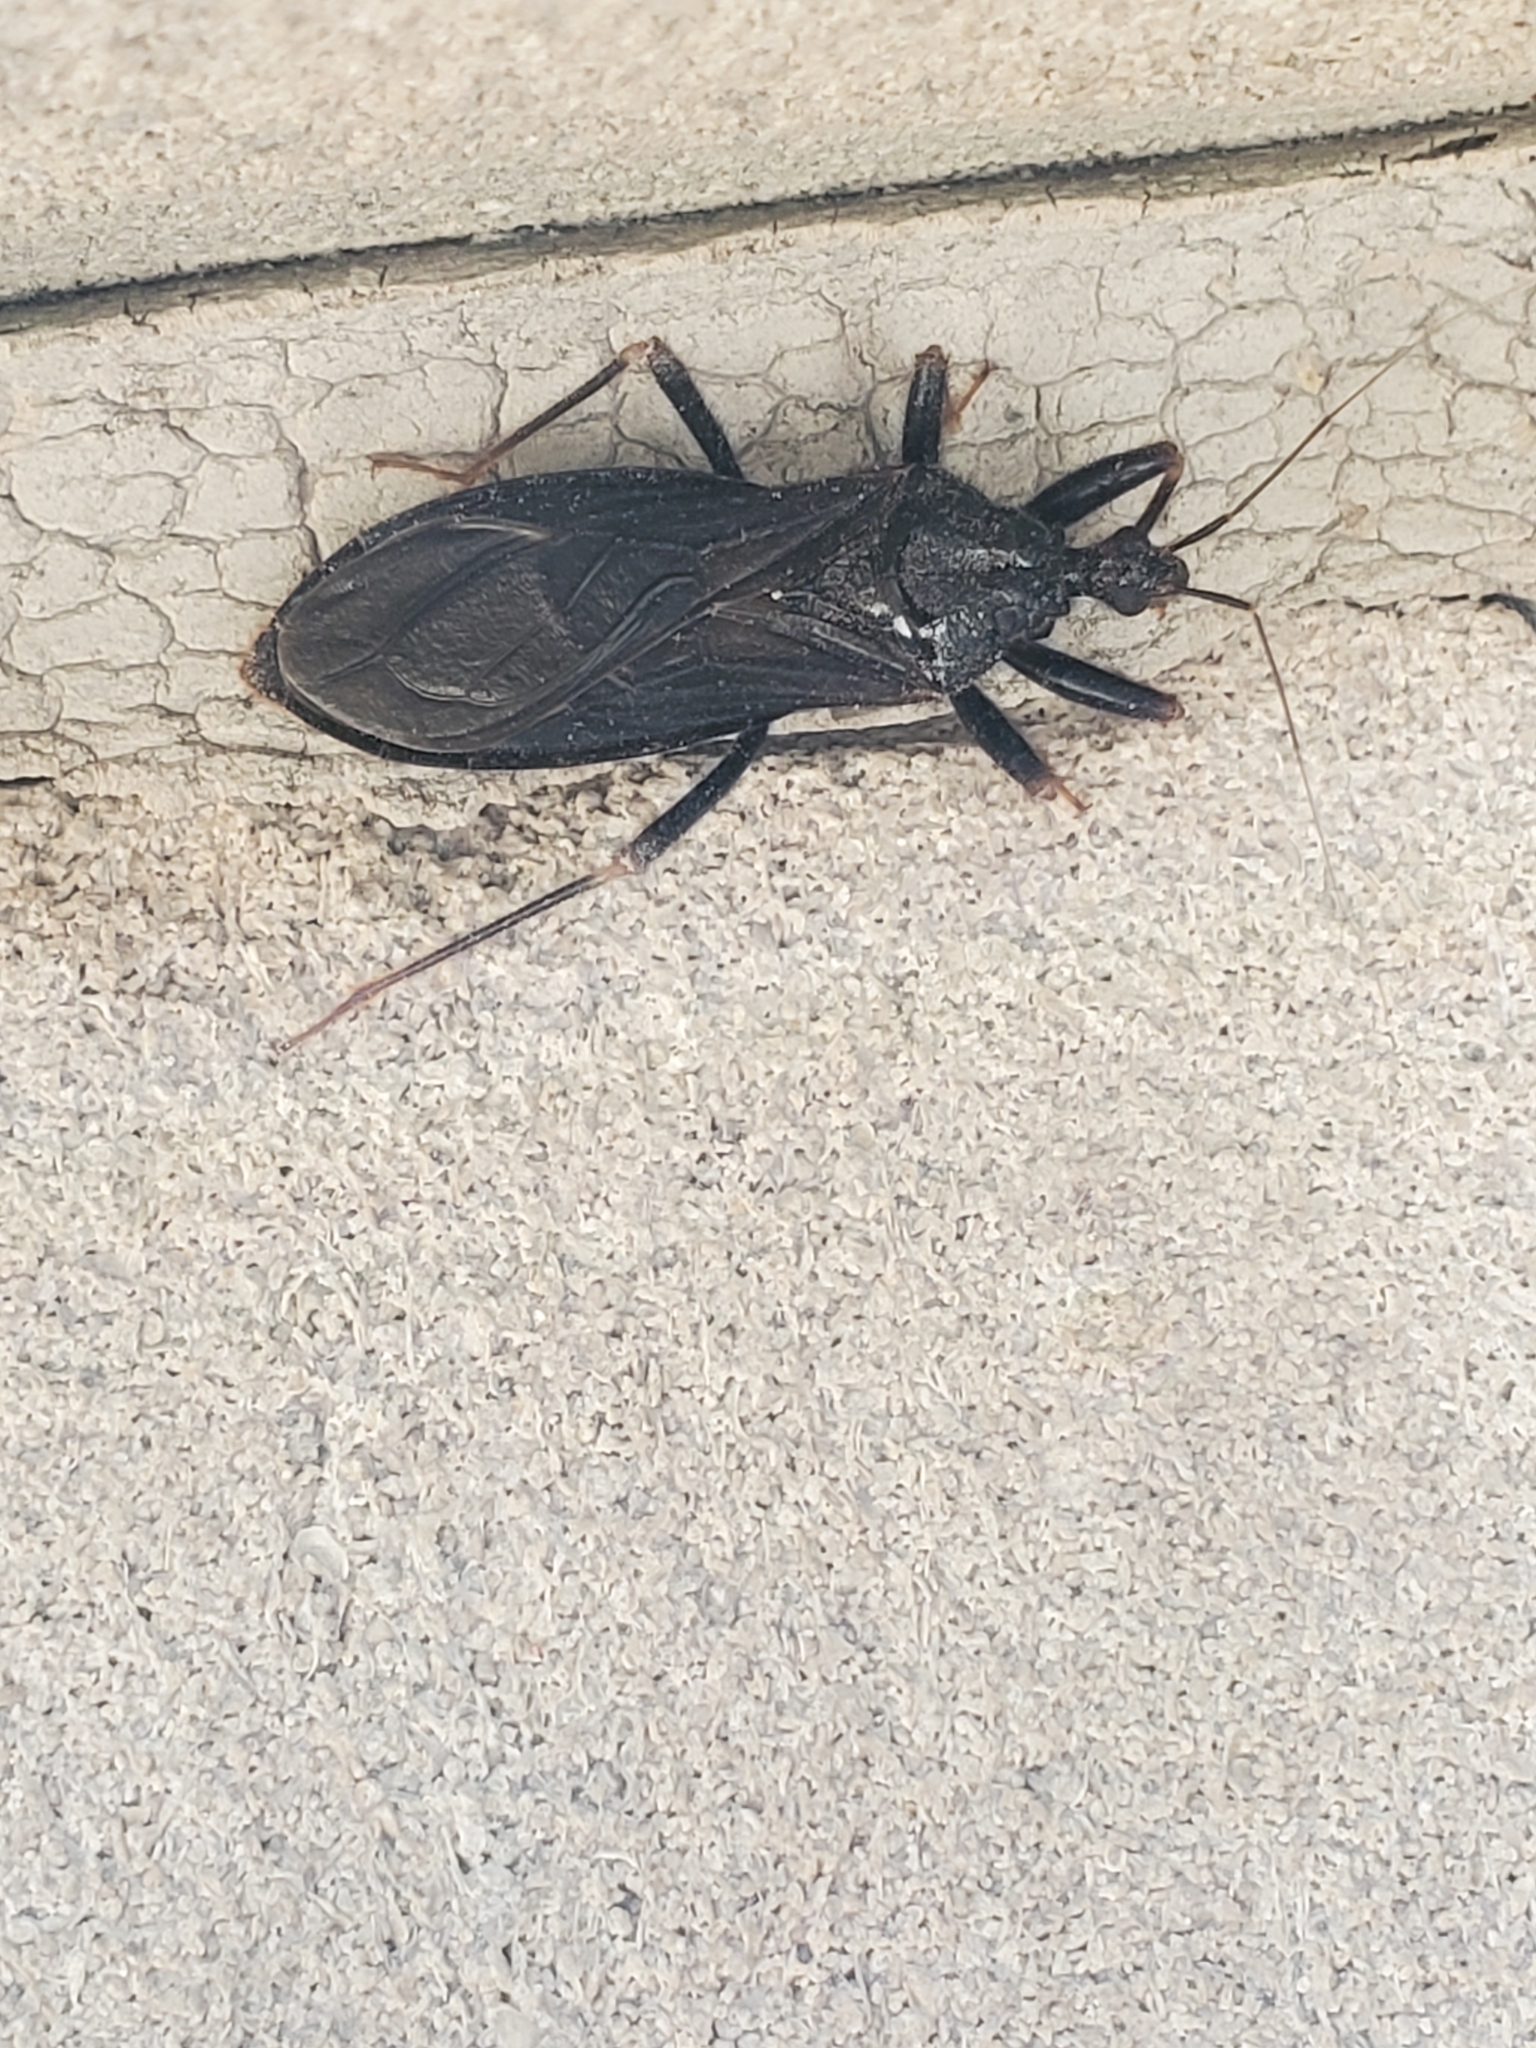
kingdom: Animalia
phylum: Arthropoda
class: Insecta
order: Hemiptera
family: Reduviidae
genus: Reduvius
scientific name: Reduvius personatus
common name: Masked hunter
